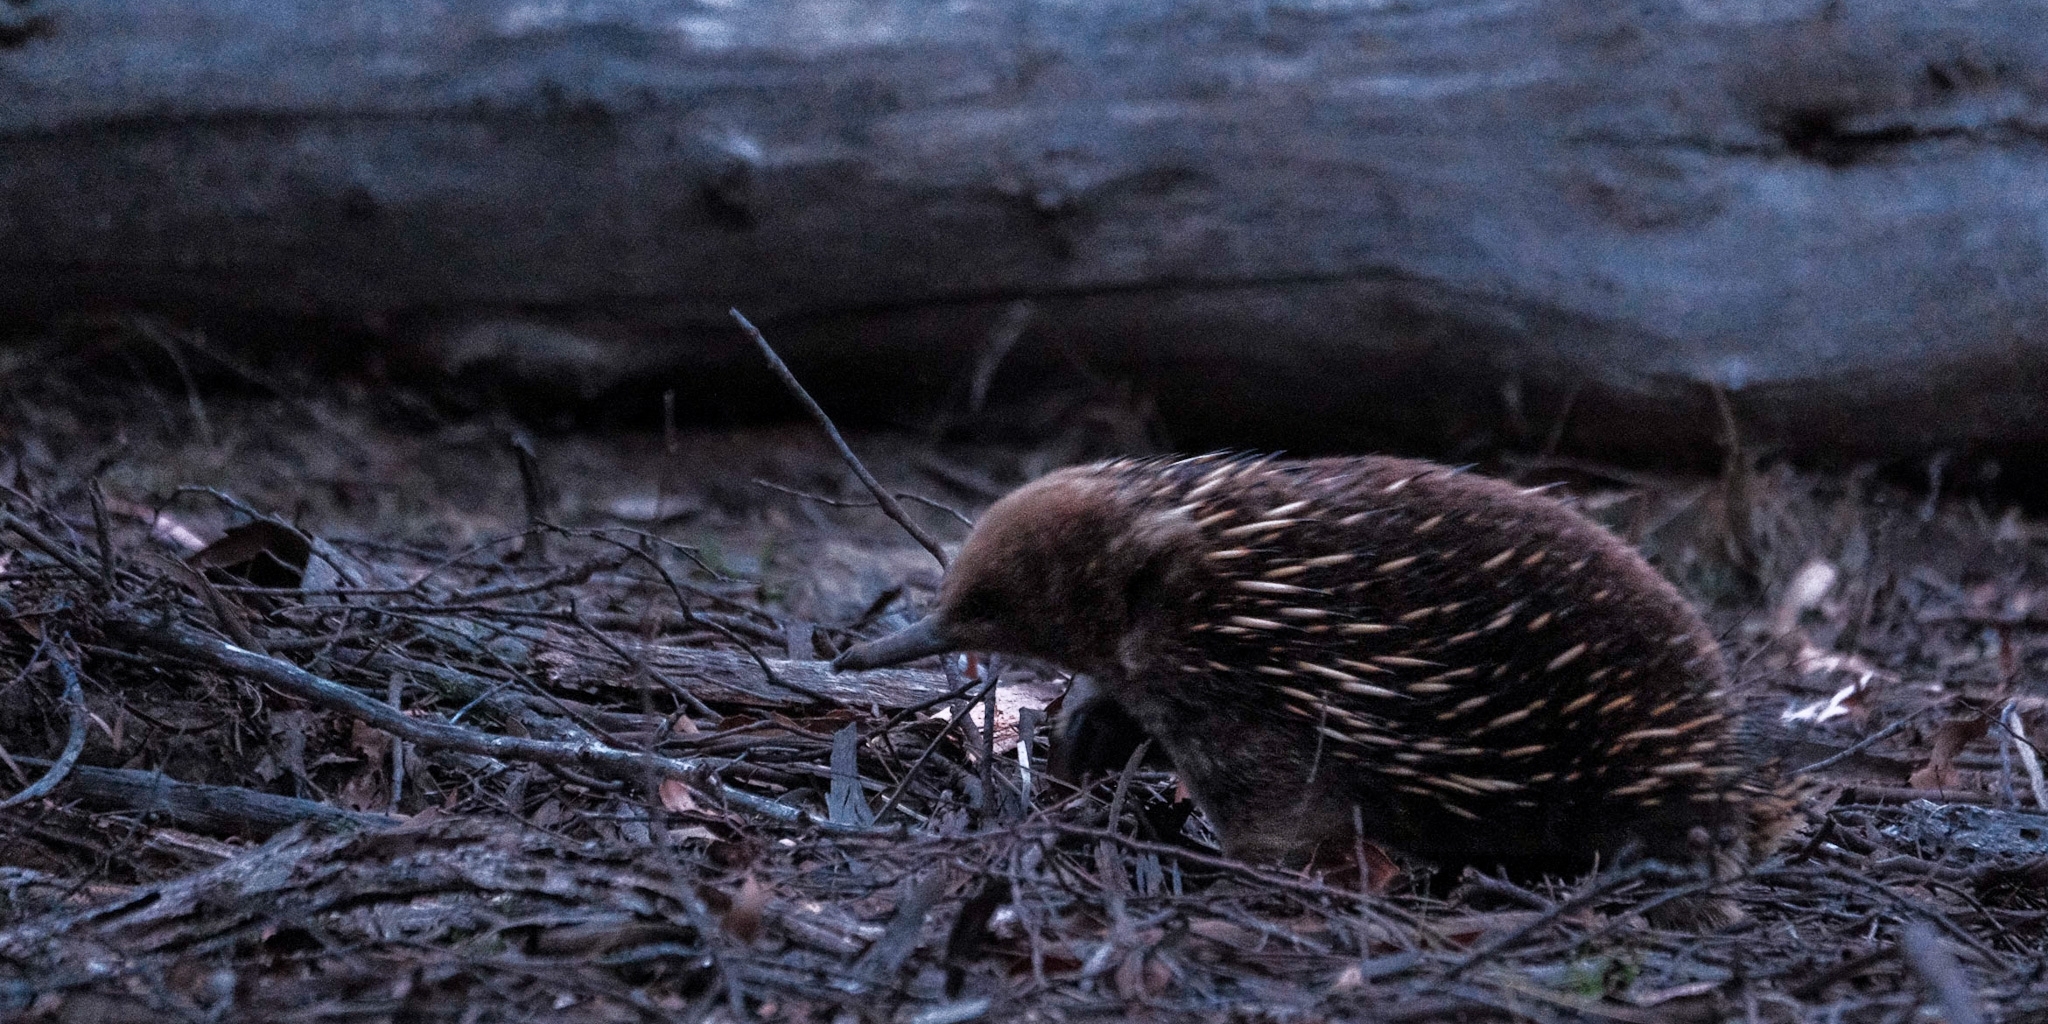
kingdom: Animalia
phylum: Chordata
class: Mammalia
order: Monotremata
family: Tachyglossidae
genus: Tachyglossus
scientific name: Tachyglossus aculeatus
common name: Short-beaked echidna
